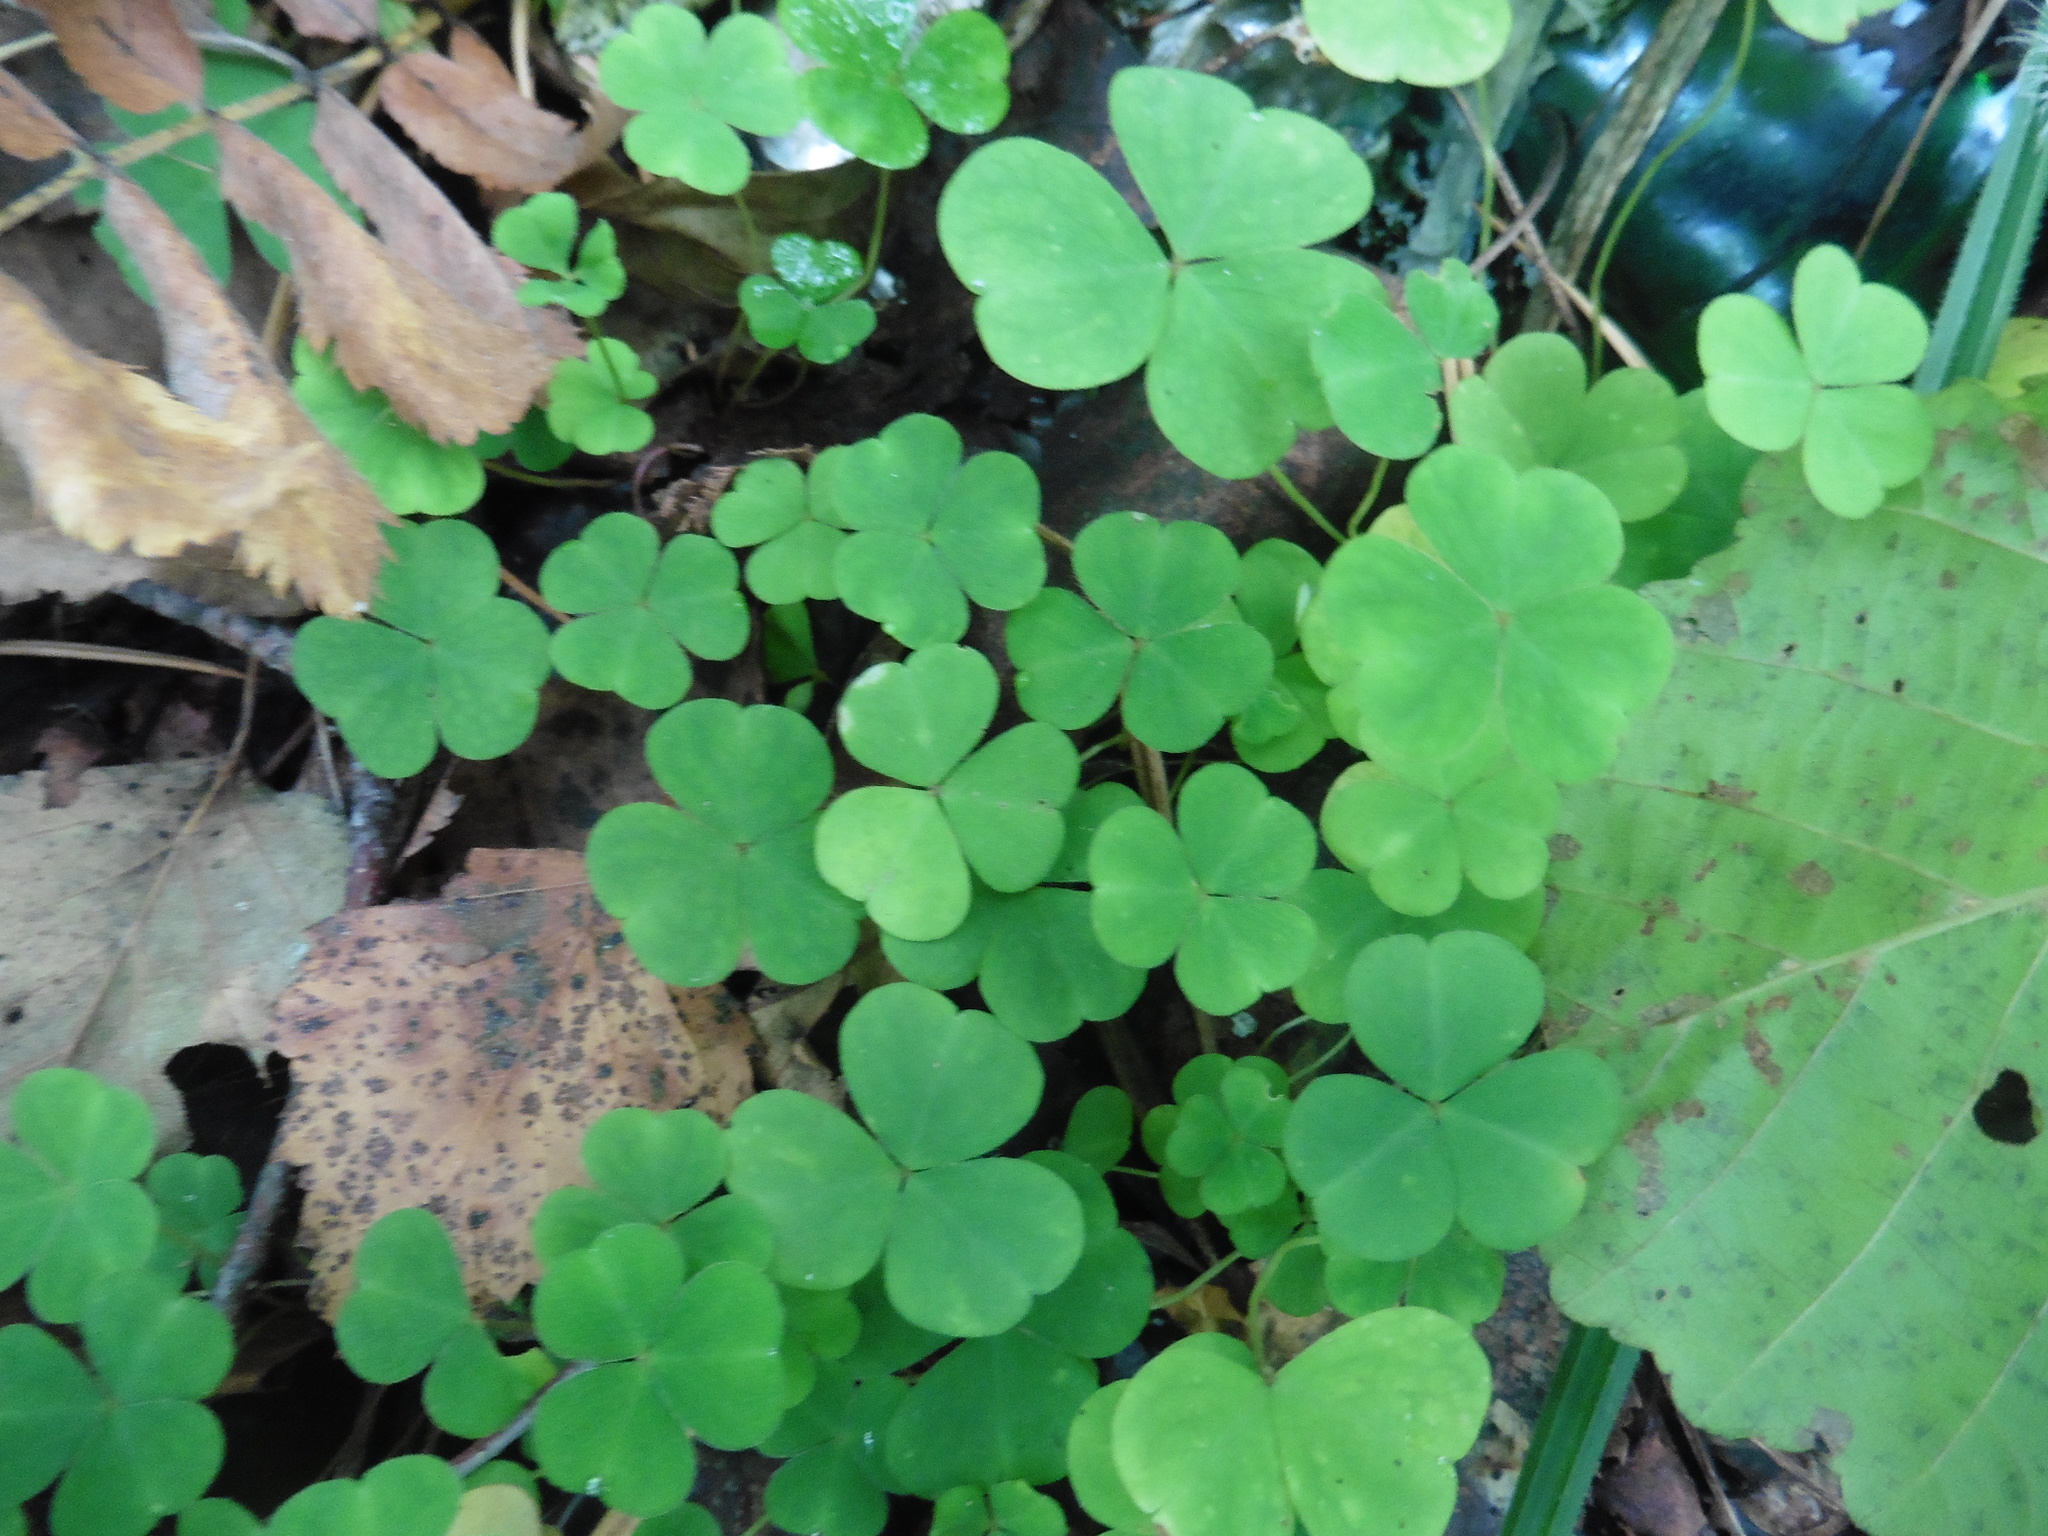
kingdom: Plantae
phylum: Tracheophyta
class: Magnoliopsida
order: Oxalidales
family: Oxalidaceae
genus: Oxalis
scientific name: Oxalis acetosella
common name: Wood-sorrel
